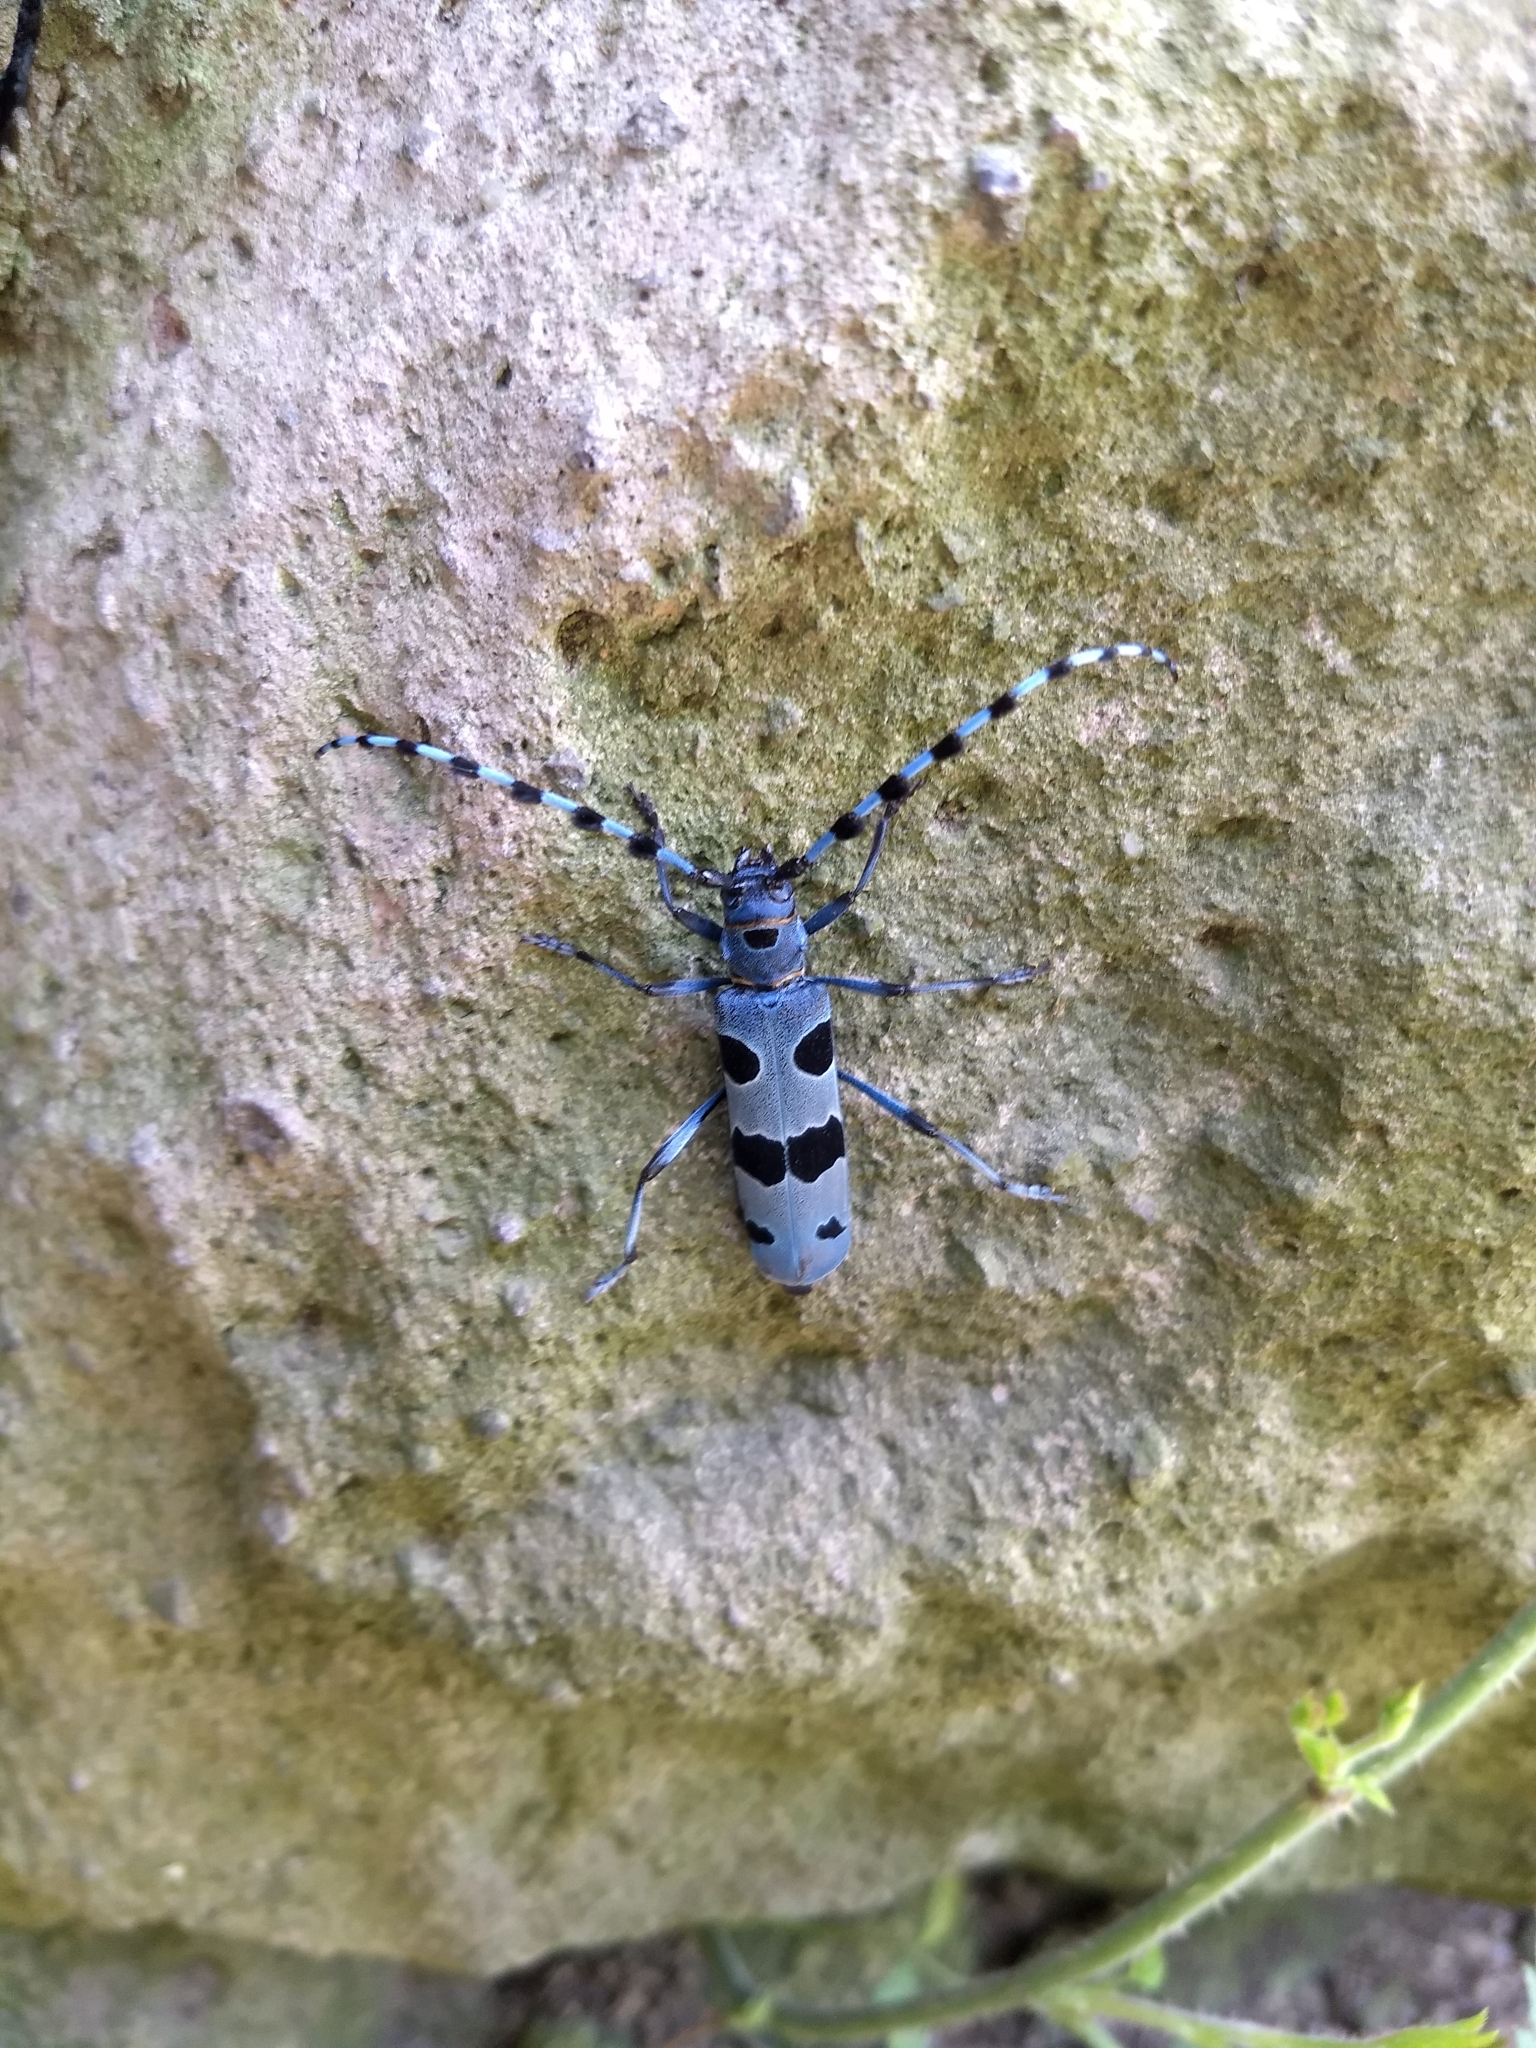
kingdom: Animalia
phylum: Arthropoda
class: Insecta
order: Coleoptera
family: Cerambycidae
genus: Rosalia
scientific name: Rosalia alpina
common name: Rosalia longicorn
